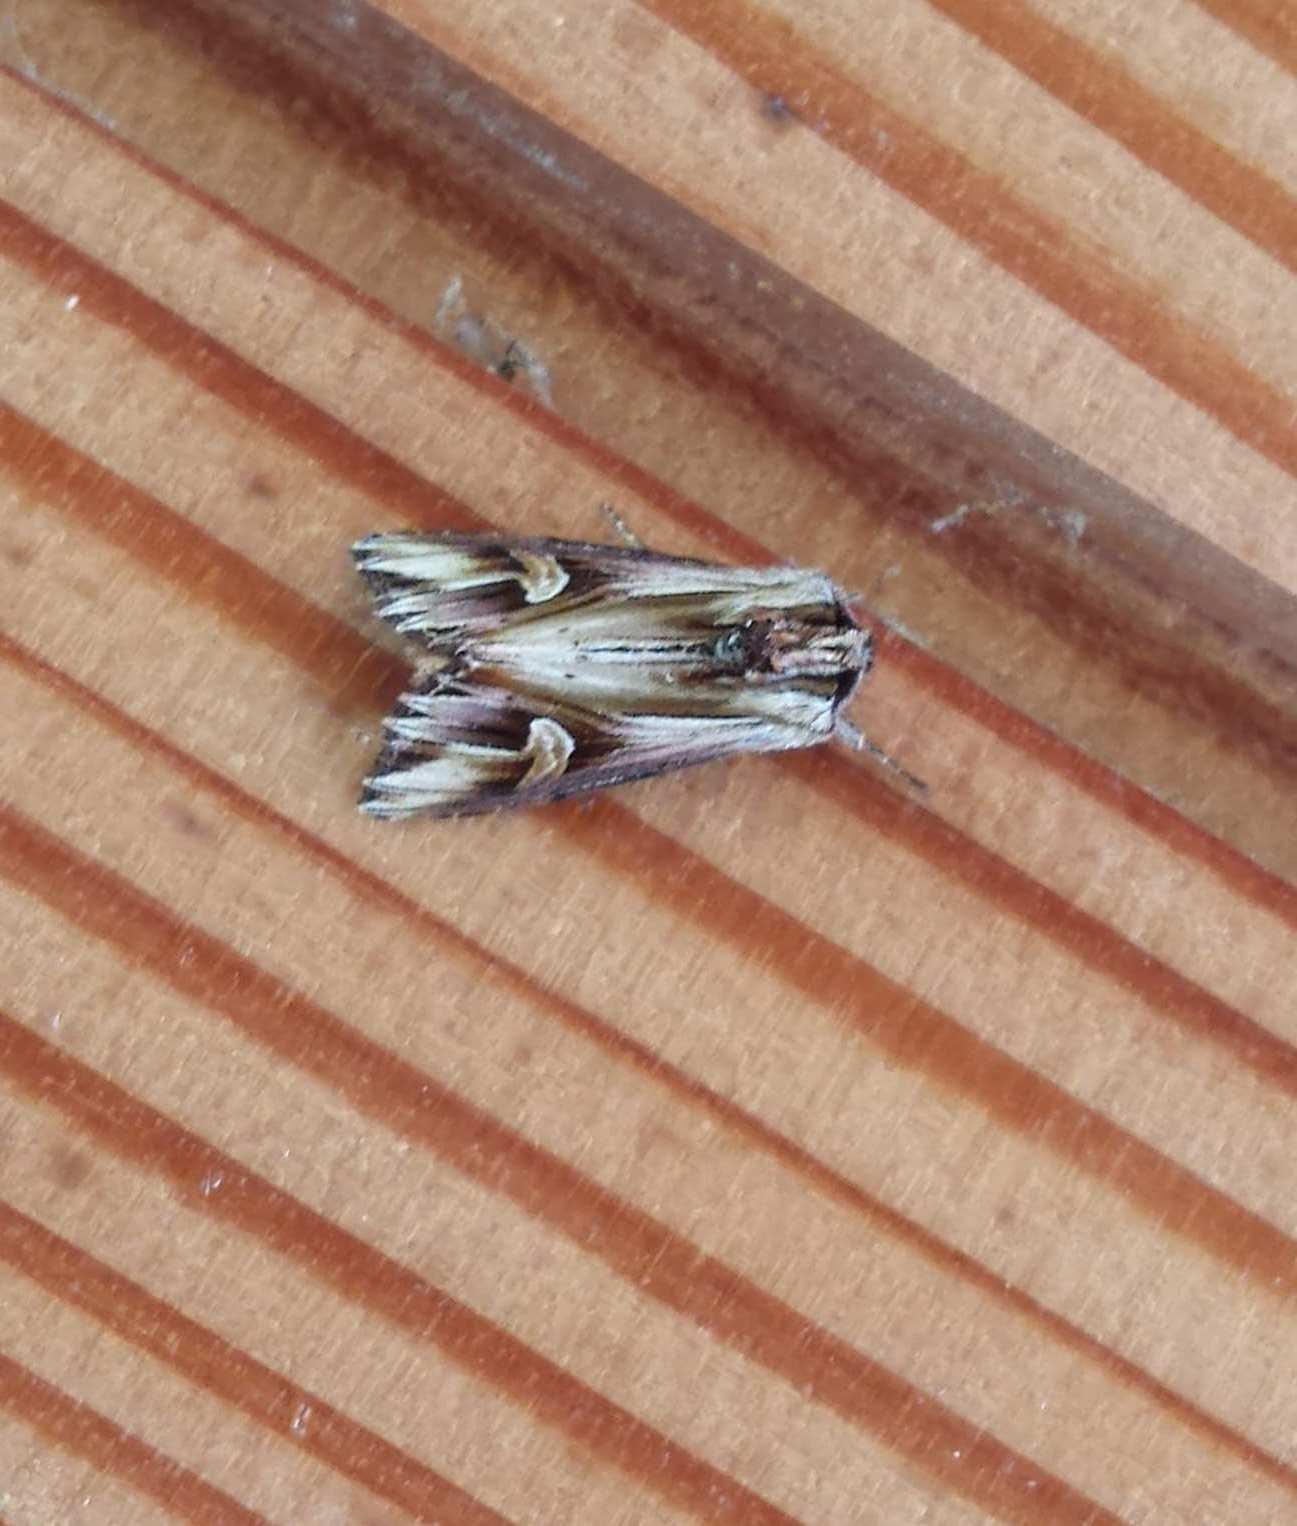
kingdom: Animalia
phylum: Arthropoda
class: Insecta
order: Lepidoptera
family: Noctuidae
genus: Actinotia
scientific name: Actinotia polyodon
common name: Purple cloud
